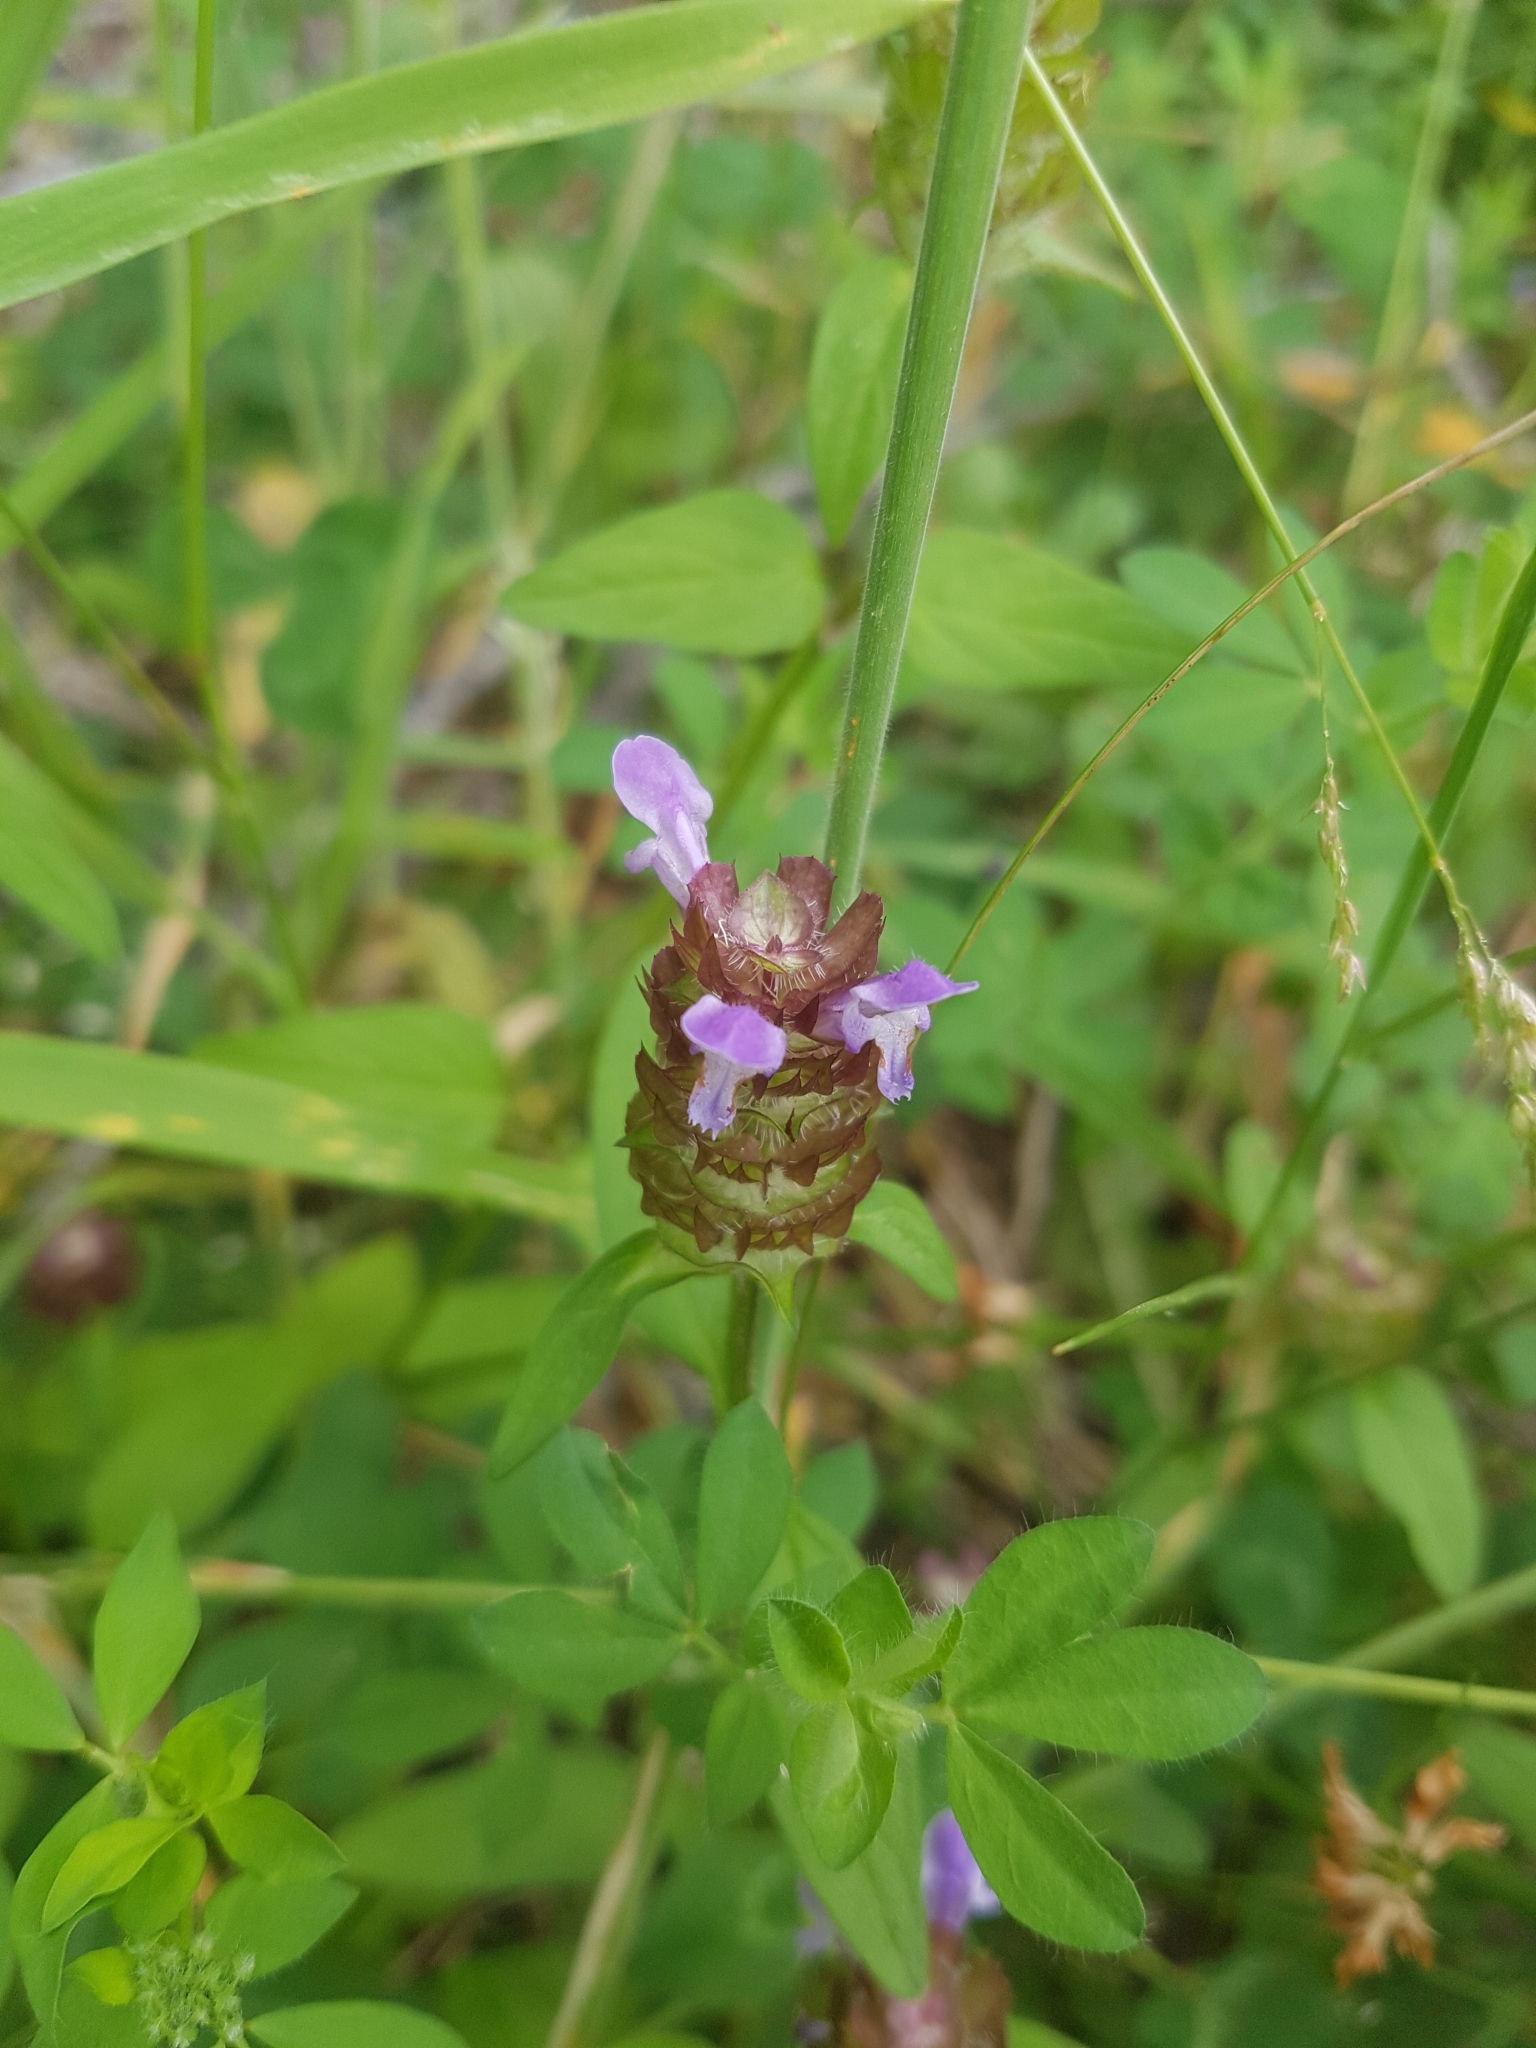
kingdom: Plantae
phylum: Tracheophyta
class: Magnoliopsida
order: Lamiales
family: Lamiaceae
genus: Prunella
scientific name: Prunella vulgaris
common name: Heal-all
